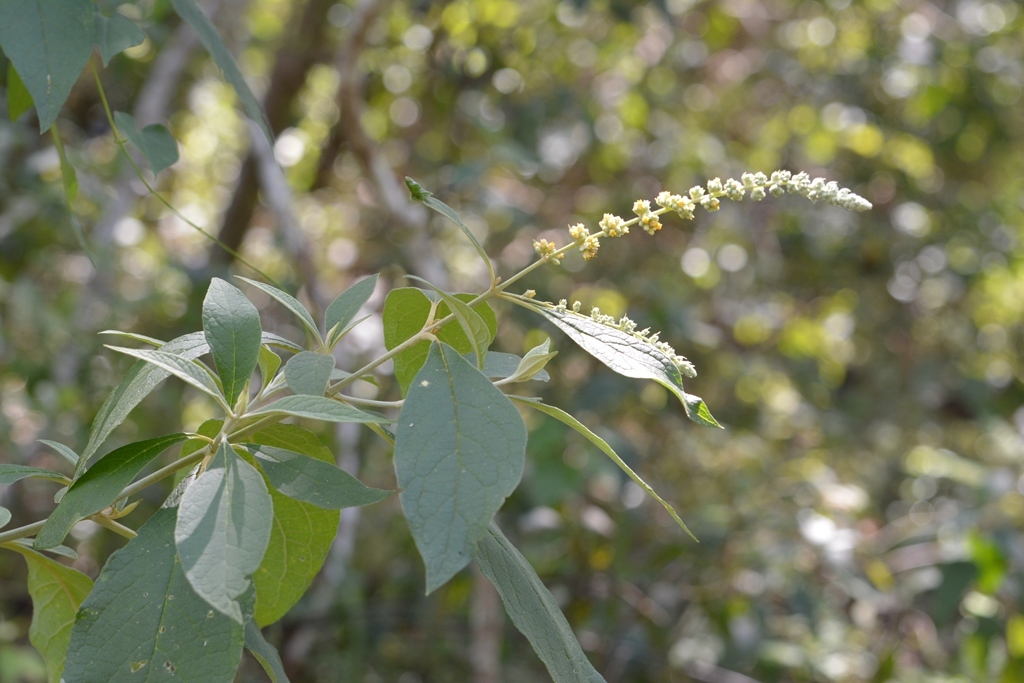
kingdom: Plantae
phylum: Tracheophyta
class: Magnoliopsida
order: Lamiales
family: Scrophulariaceae
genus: Buddleja
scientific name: Buddleja americana
